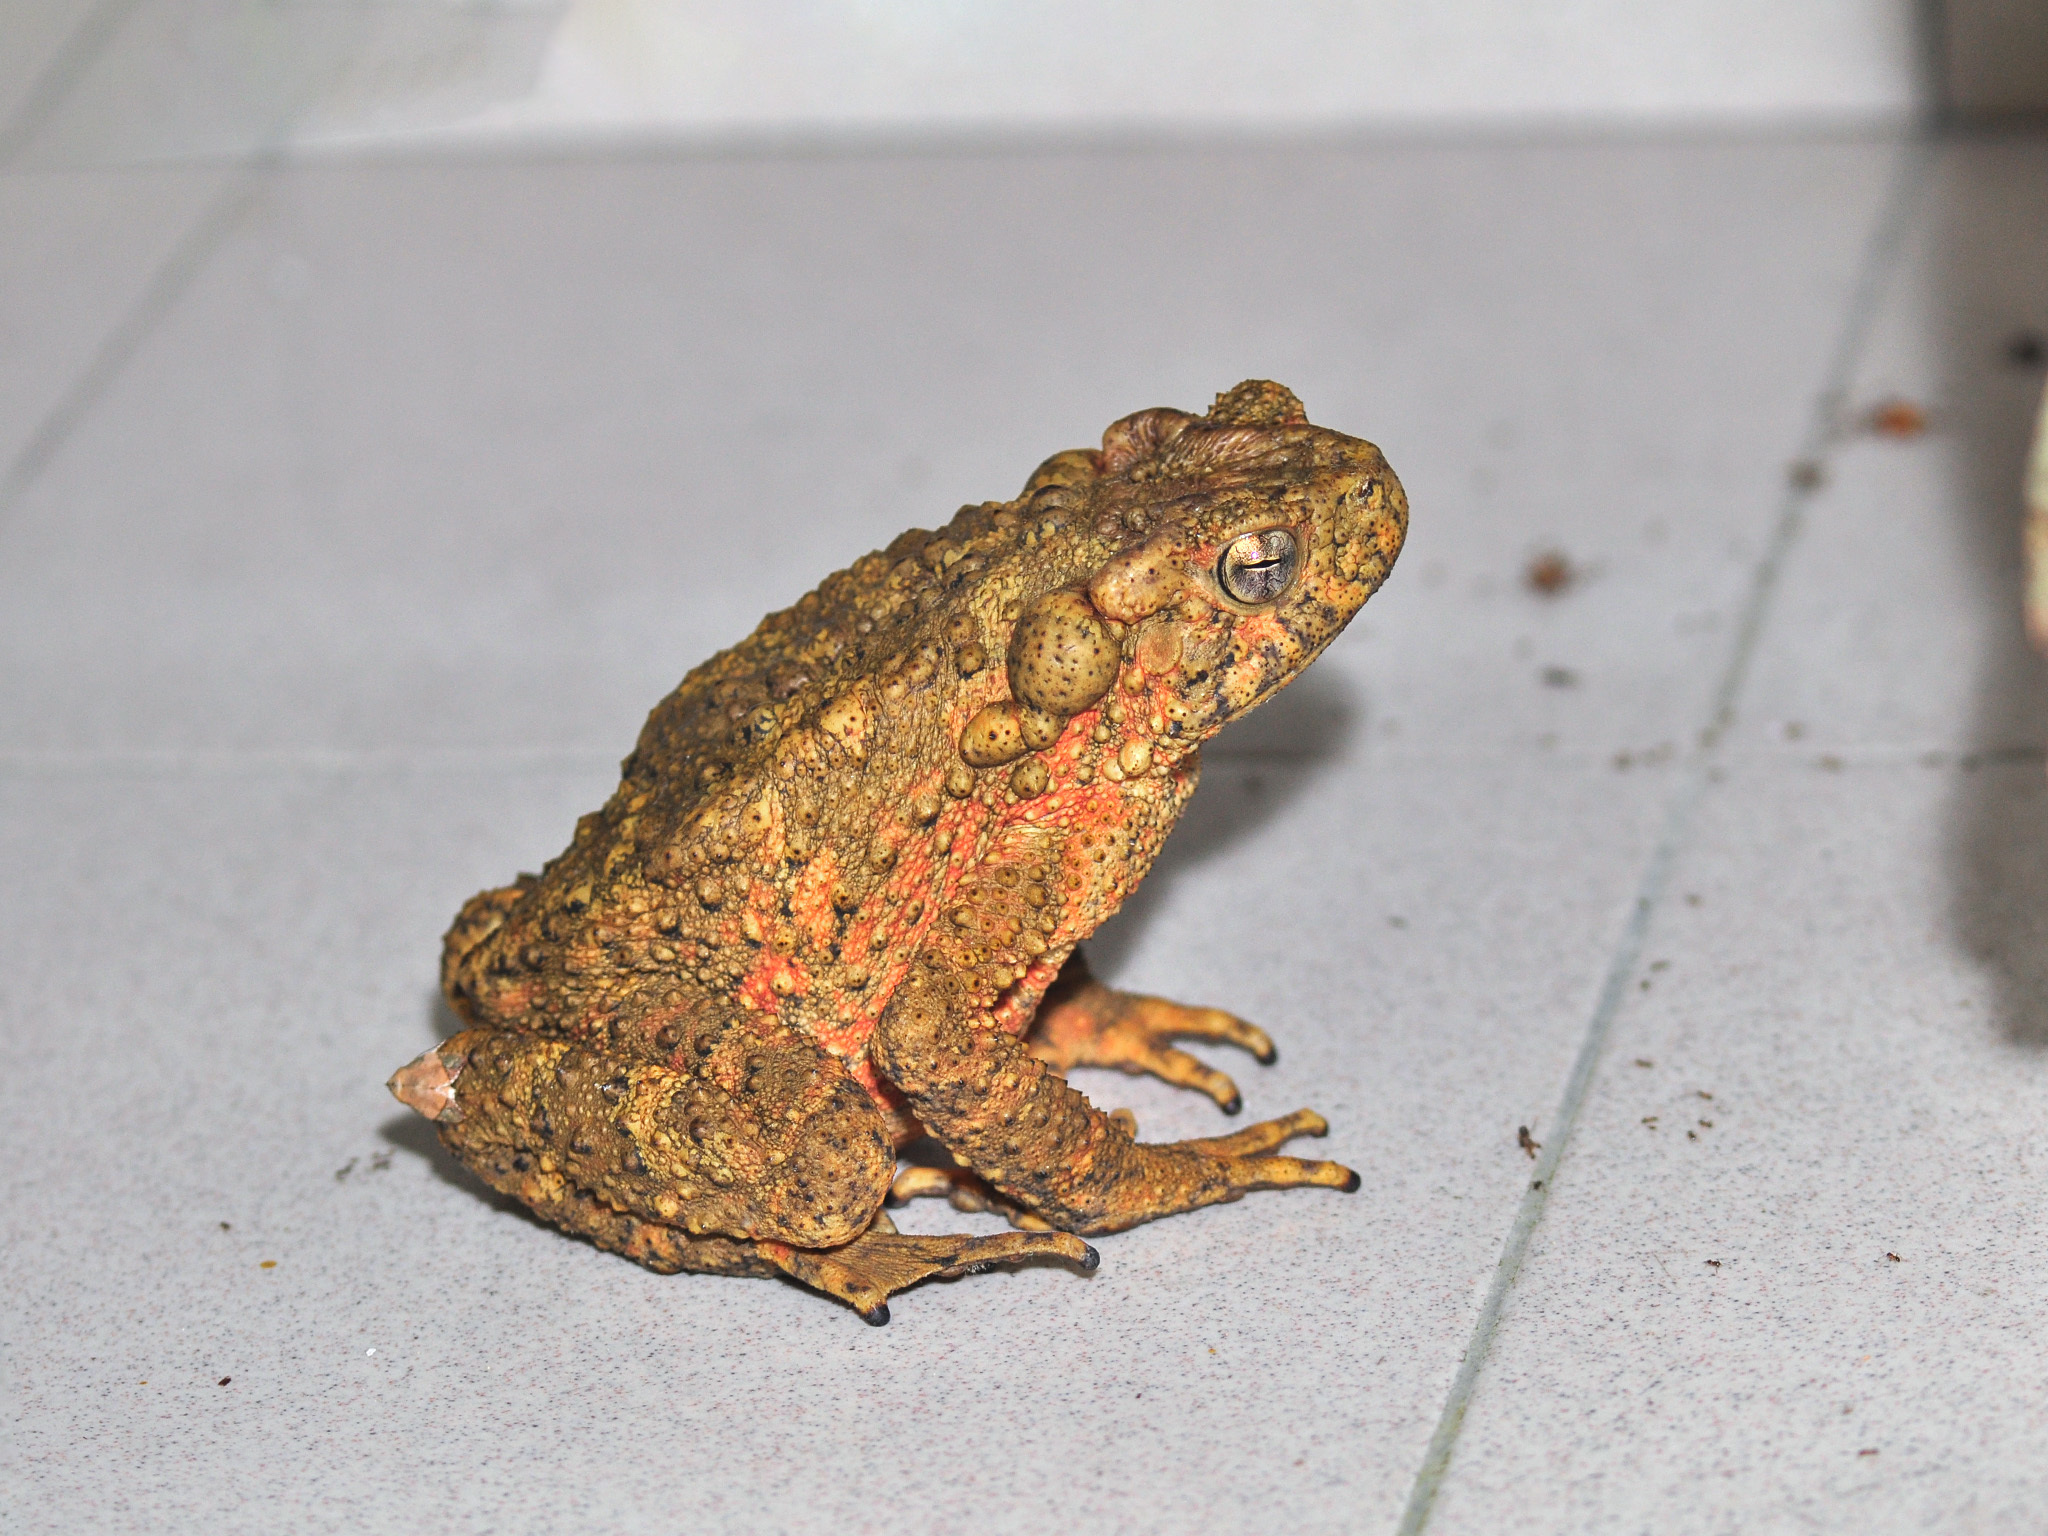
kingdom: Animalia
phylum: Chordata
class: Amphibia
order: Anura
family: Bufonidae
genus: Phrynoidis
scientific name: Phrynoidis asper
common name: Asian giant toad
